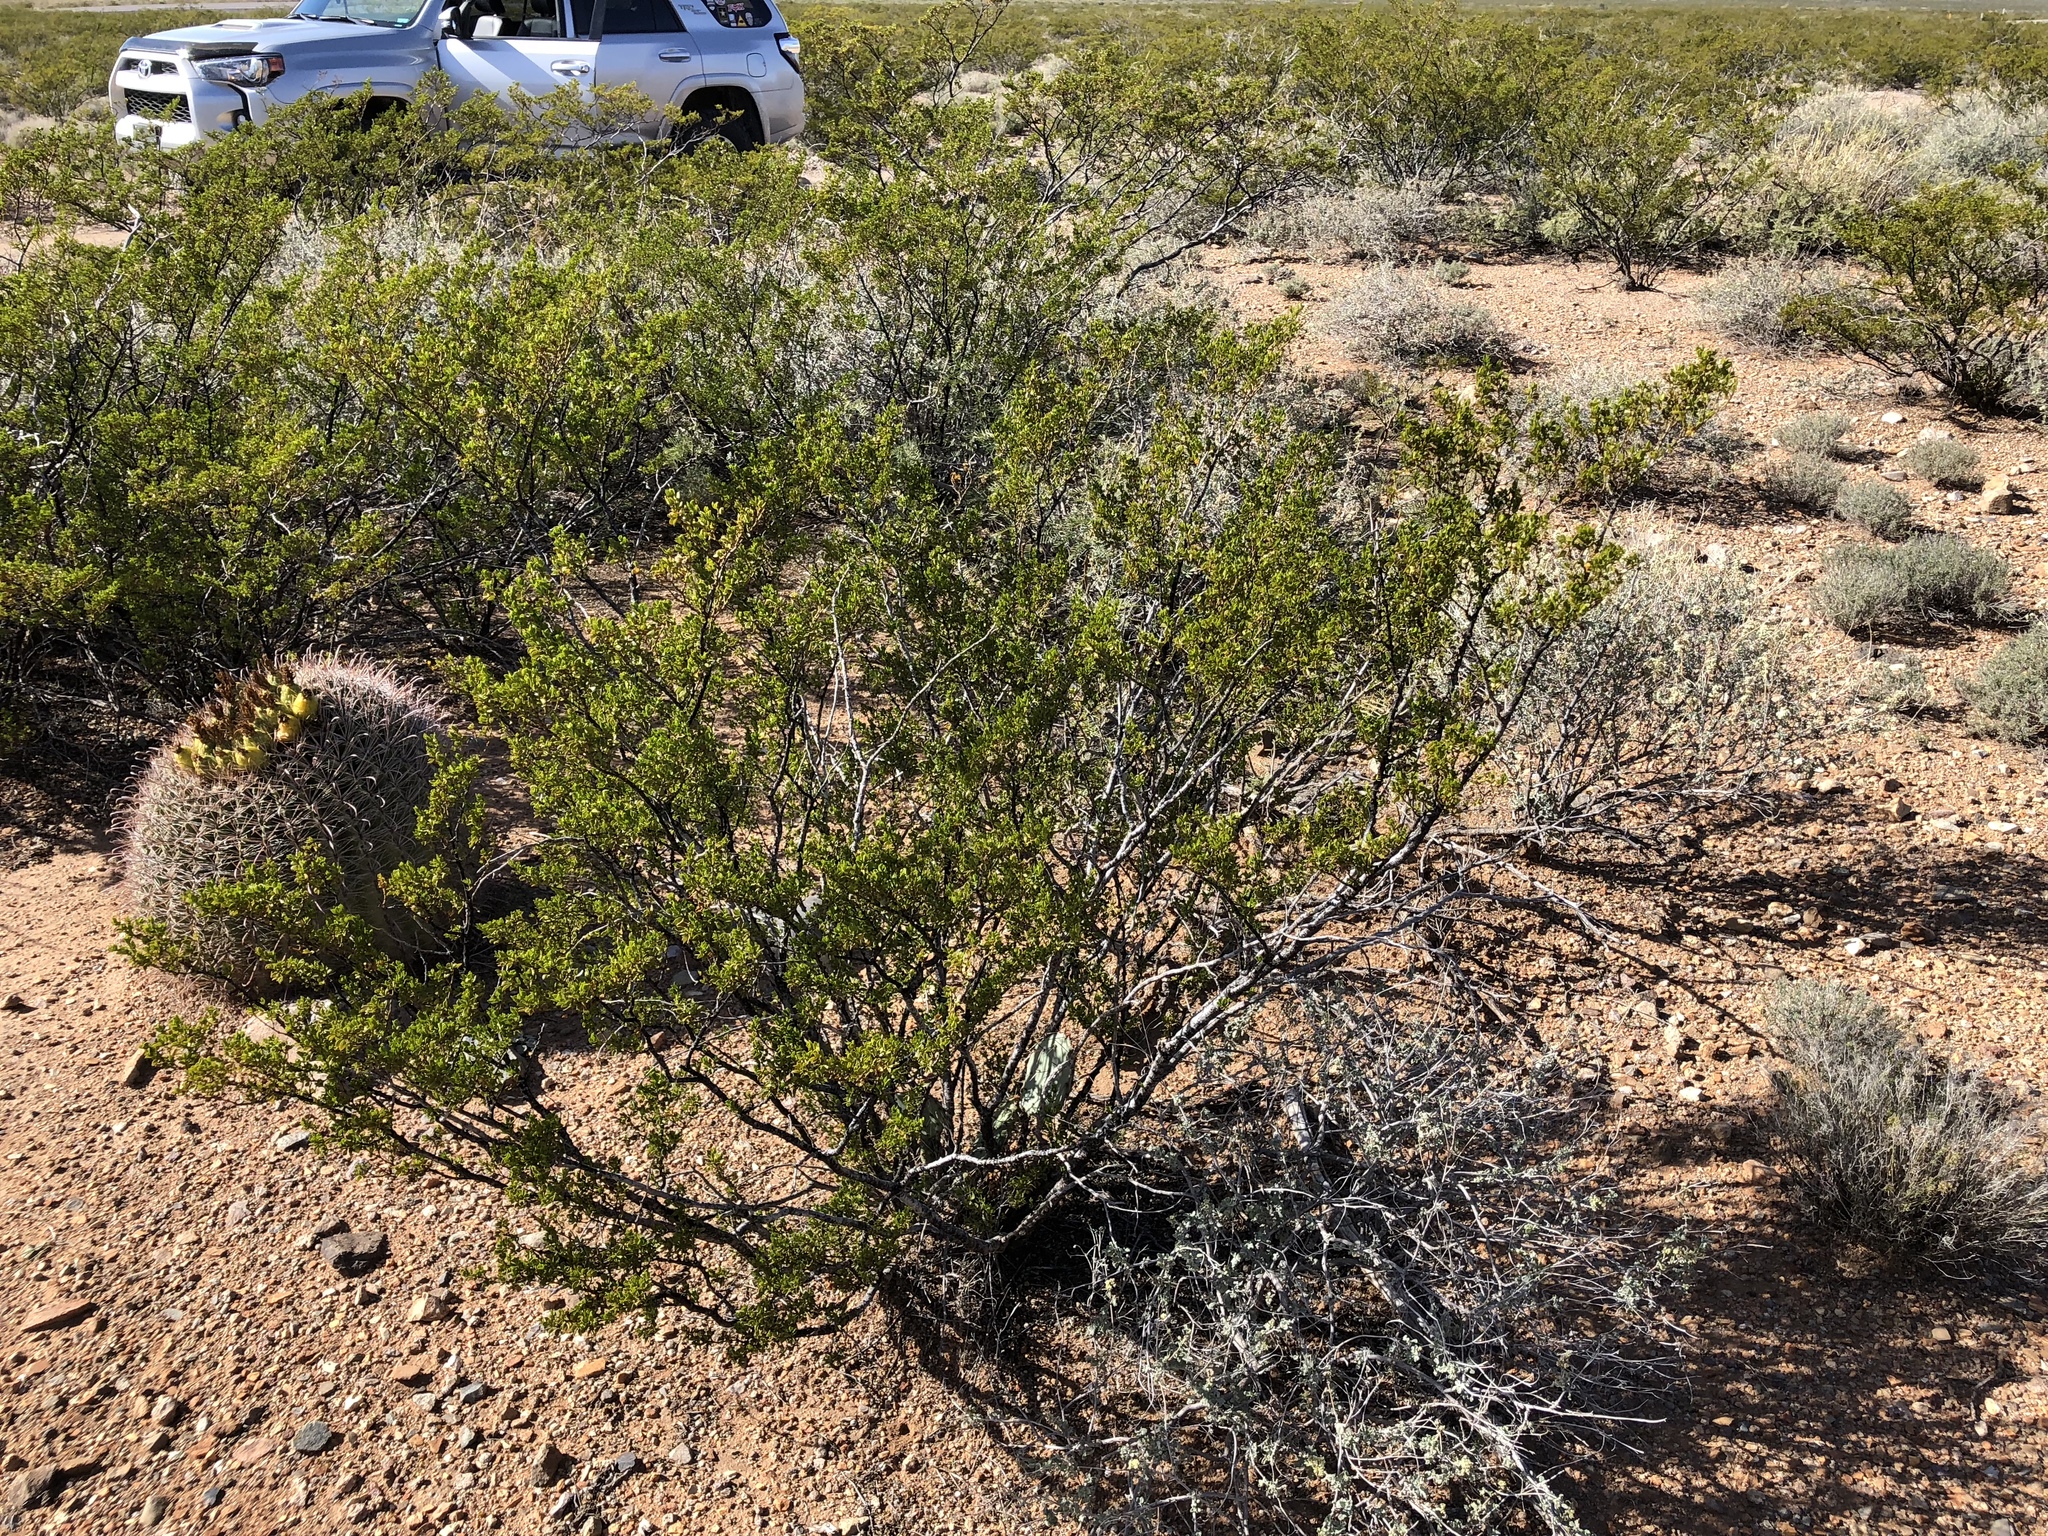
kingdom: Plantae
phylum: Tracheophyta
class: Magnoliopsida
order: Zygophyllales
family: Zygophyllaceae
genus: Larrea
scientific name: Larrea tridentata
